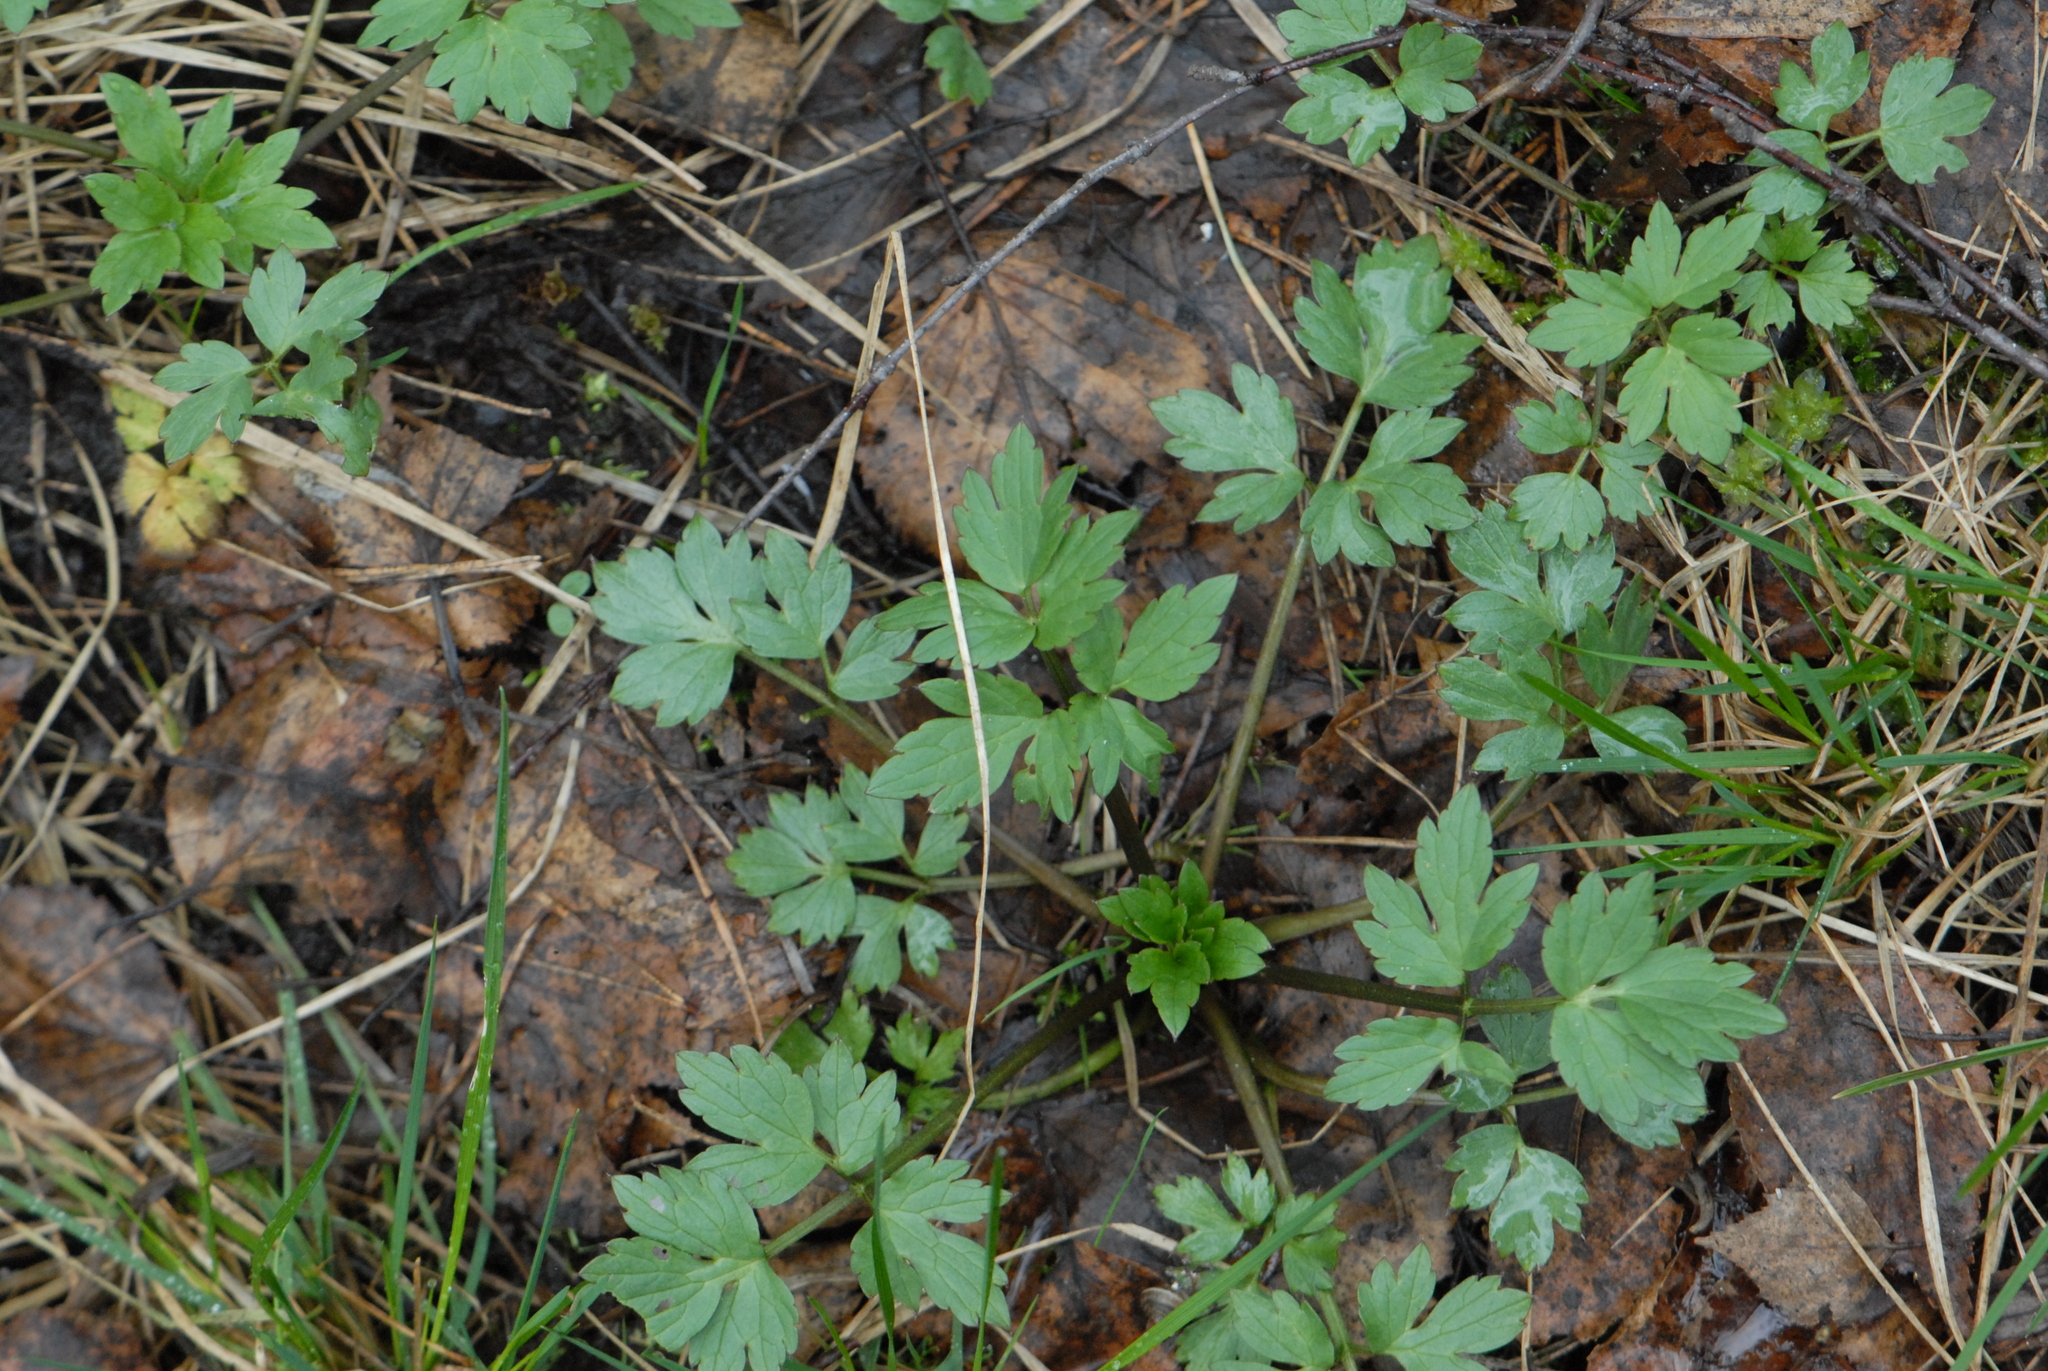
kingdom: Plantae
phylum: Tracheophyta
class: Magnoliopsida
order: Ranunculales
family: Ranunculaceae
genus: Ranunculus
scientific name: Ranunculus repens
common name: Creeping buttercup
